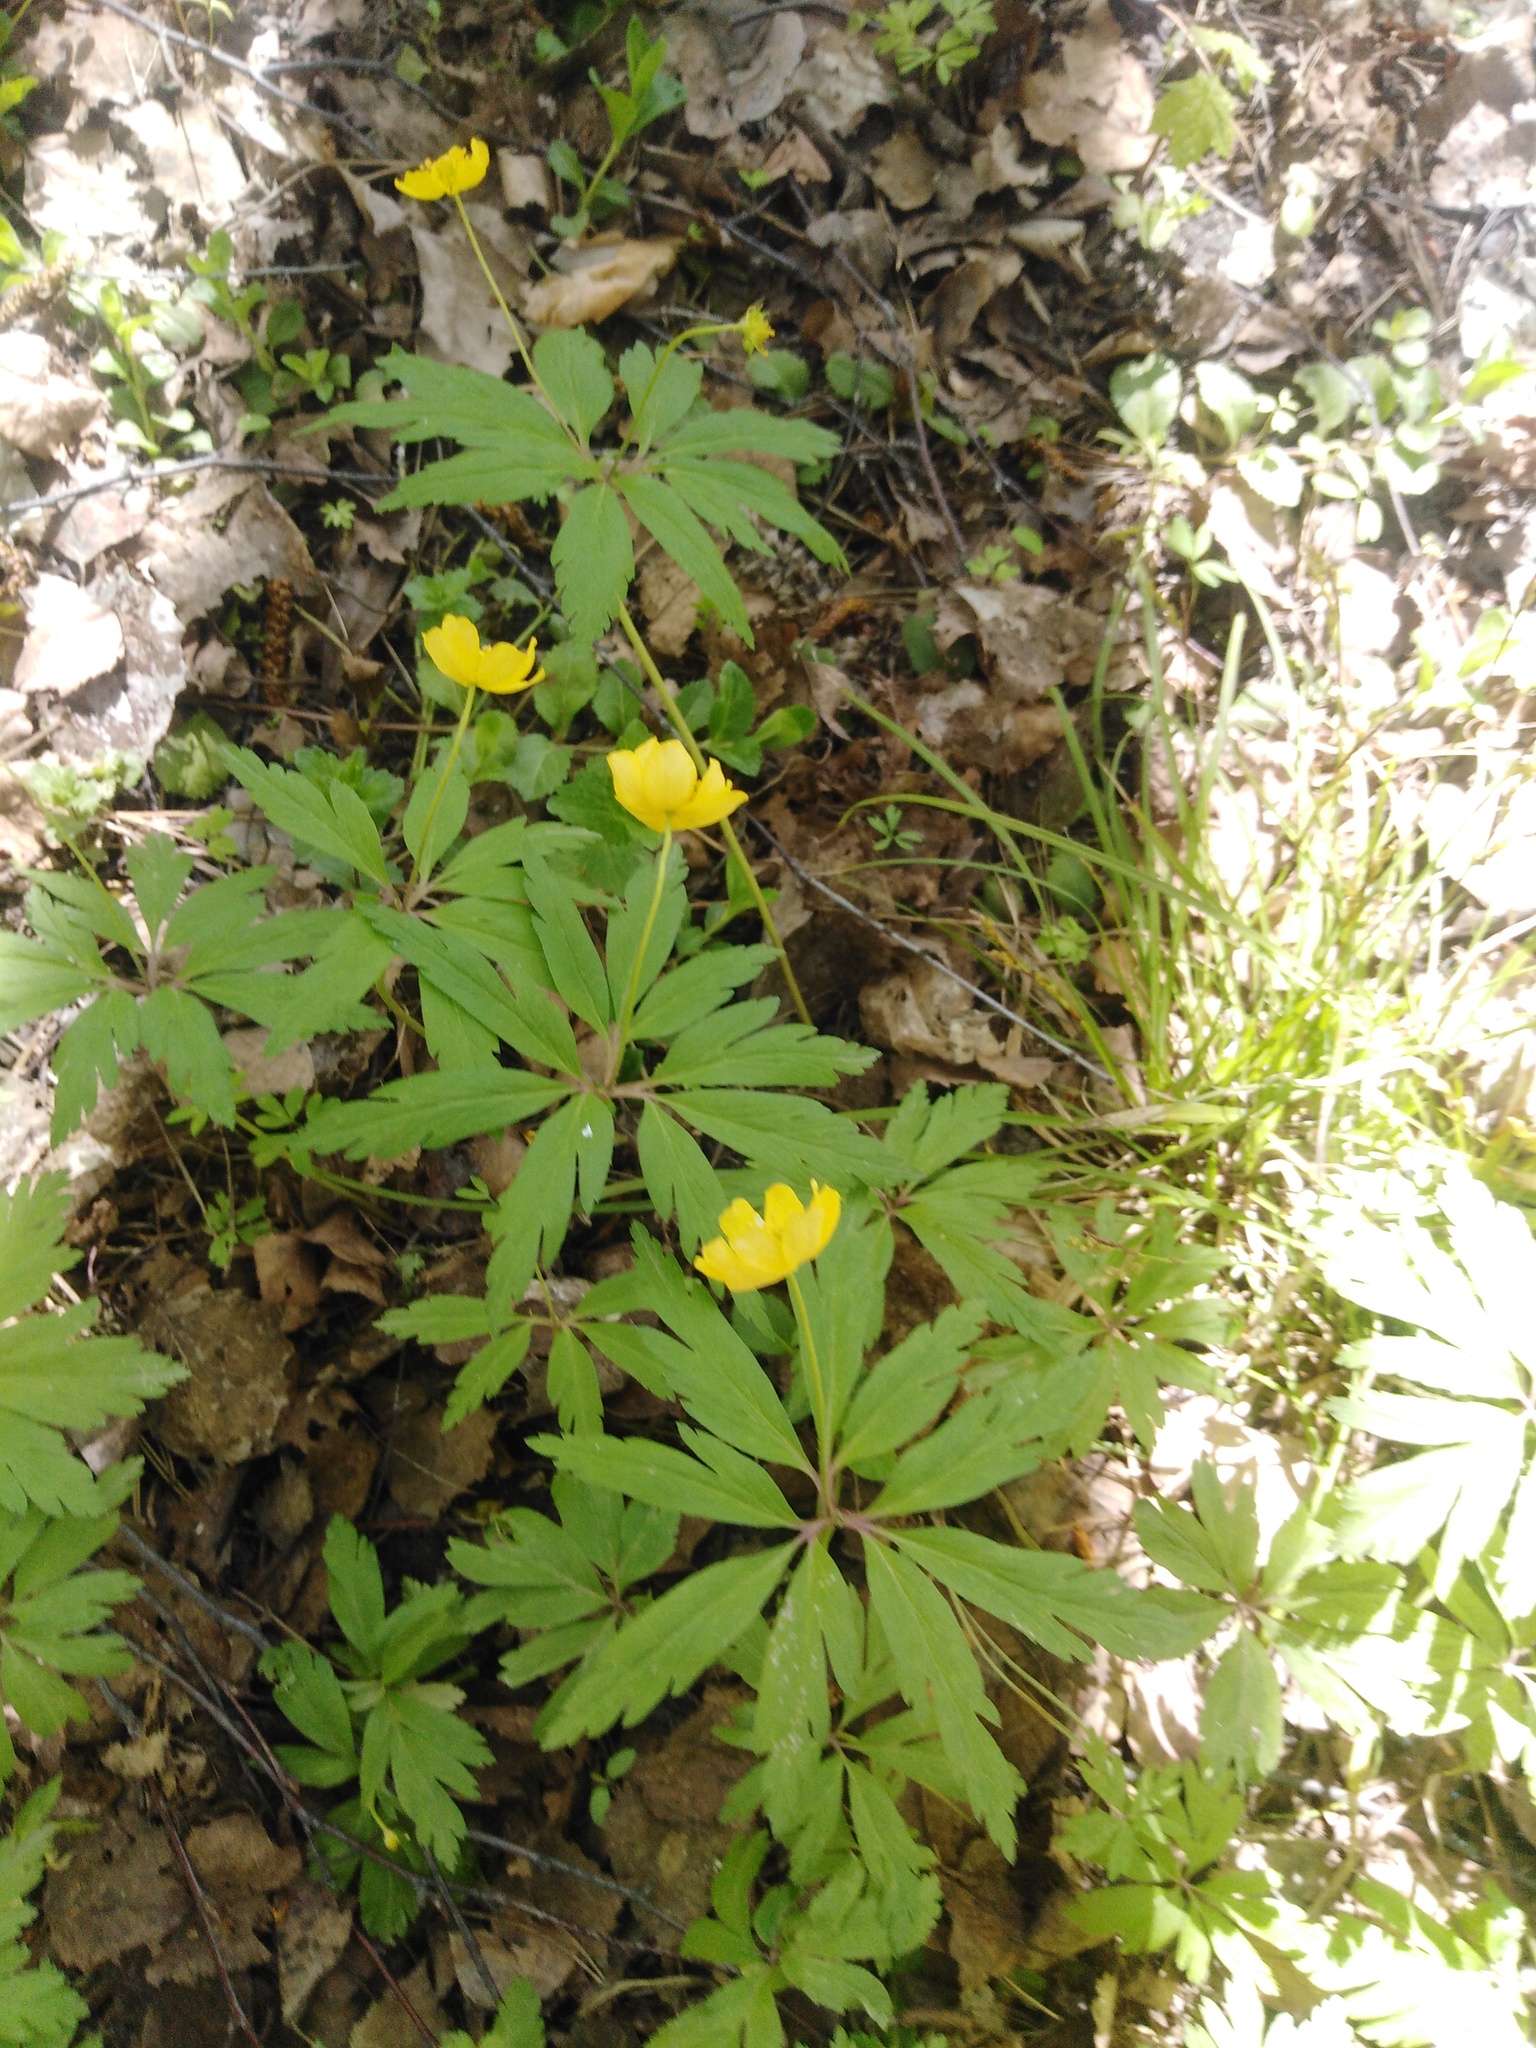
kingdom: Plantae
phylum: Tracheophyta
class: Magnoliopsida
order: Ranunculales
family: Ranunculaceae
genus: Anemone
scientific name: Anemone ranunculoides
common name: Yellow anemone
